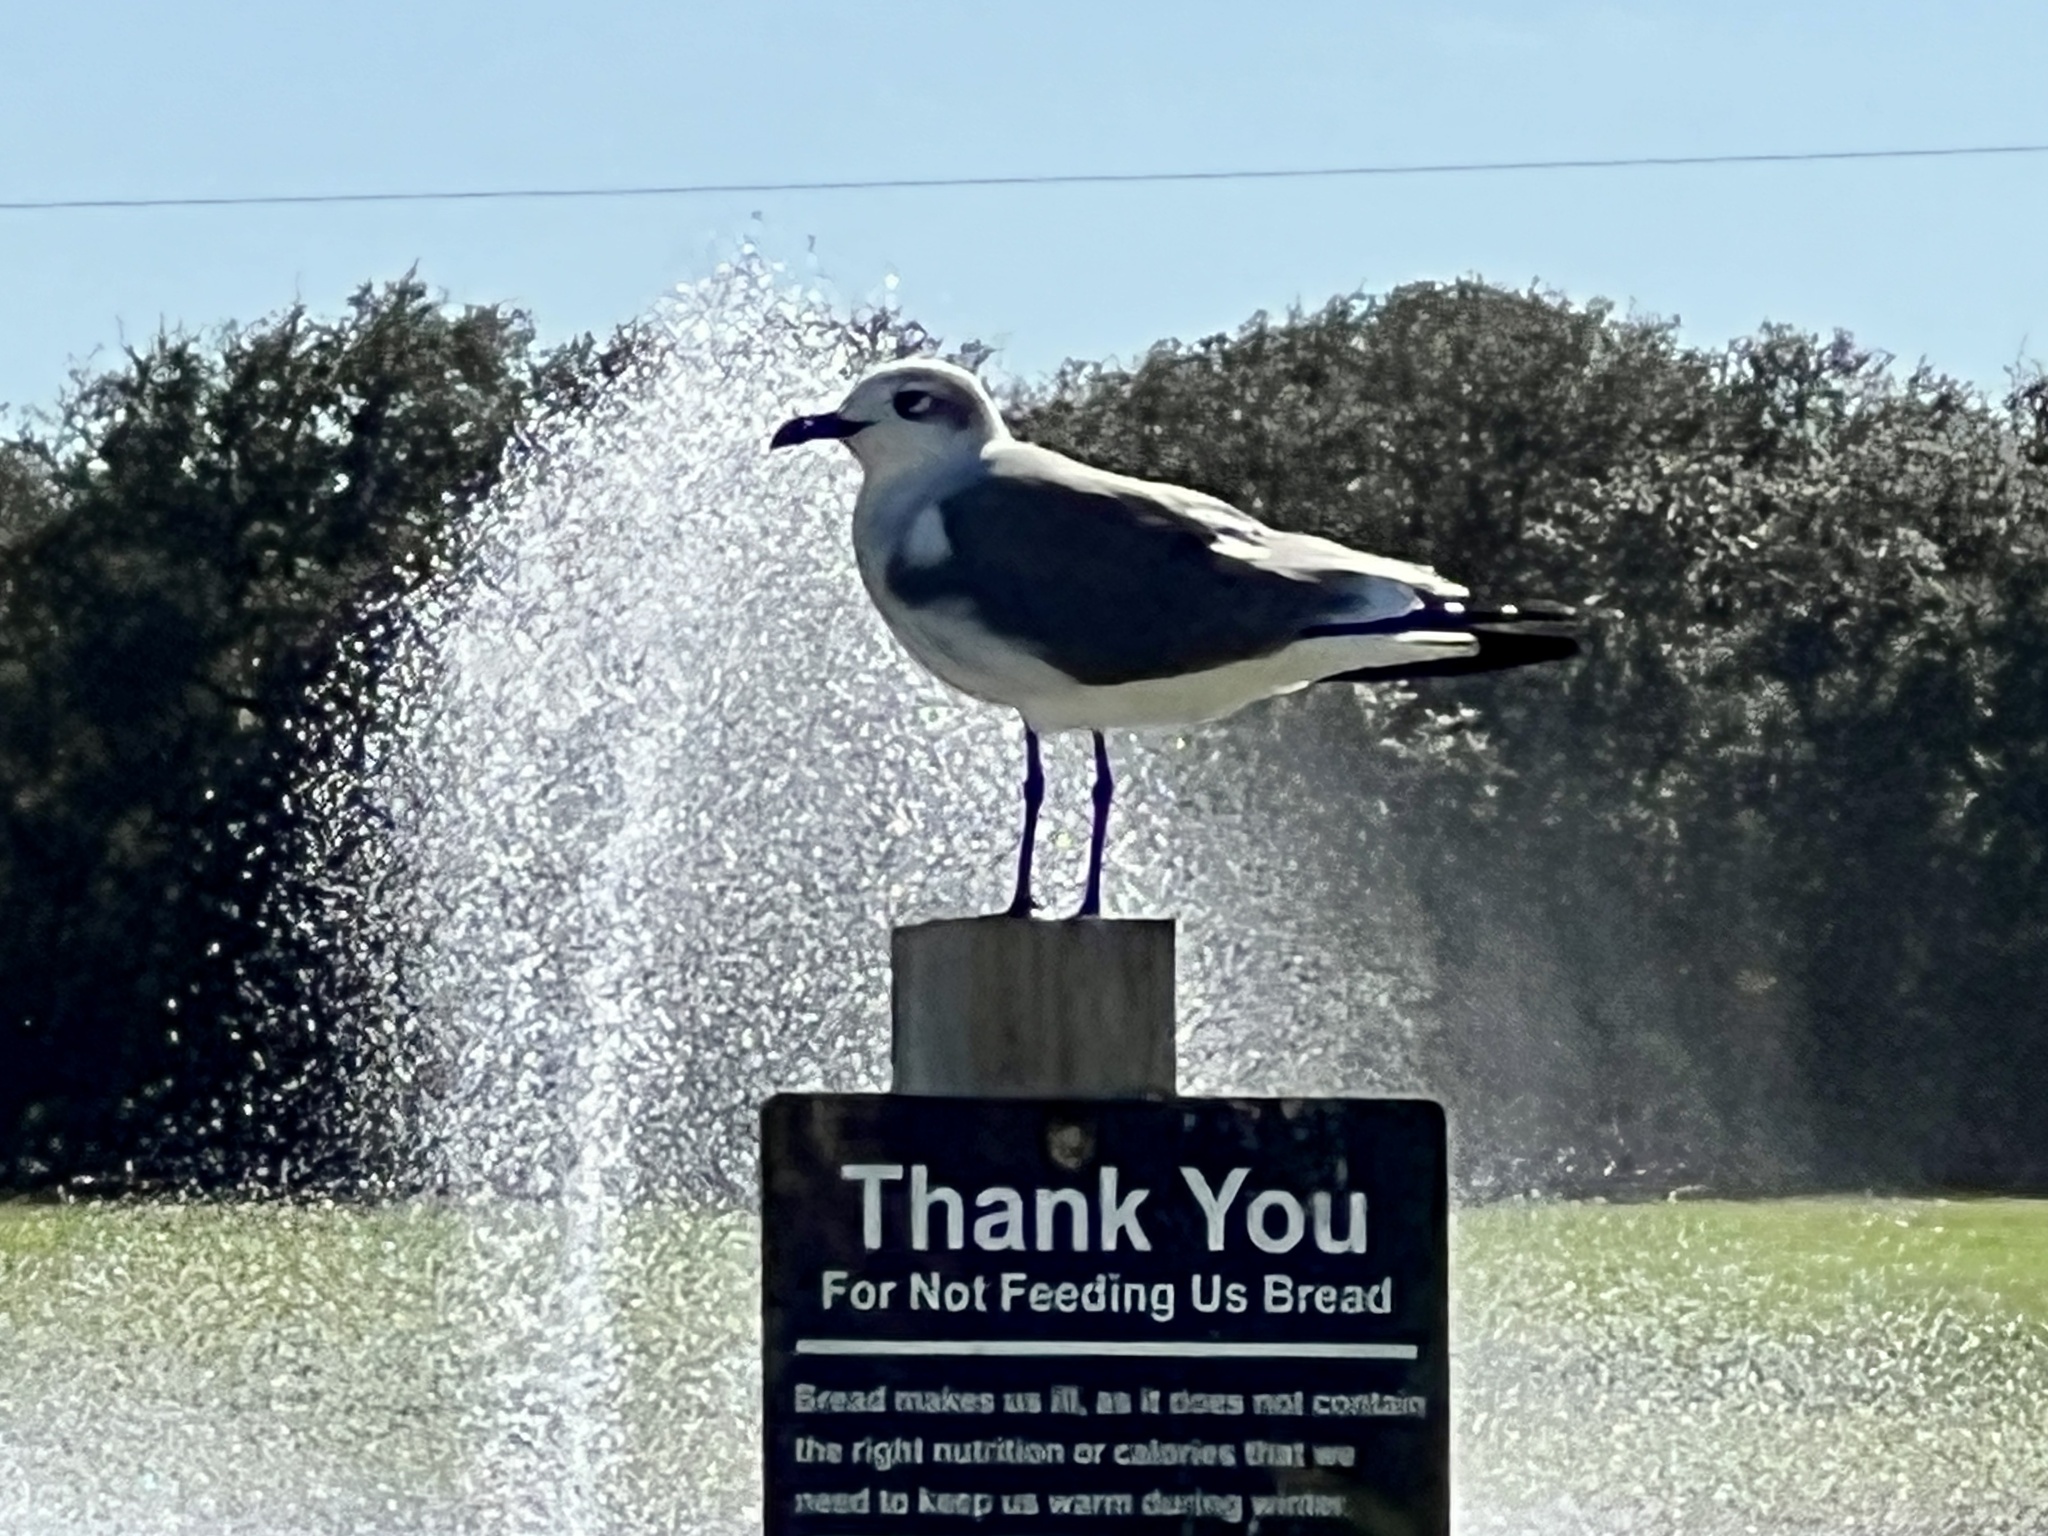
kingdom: Animalia
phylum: Chordata
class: Aves
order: Charadriiformes
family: Laridae
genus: Leucophaeus
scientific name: Leucophaeus atricilla
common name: Laughing gull
